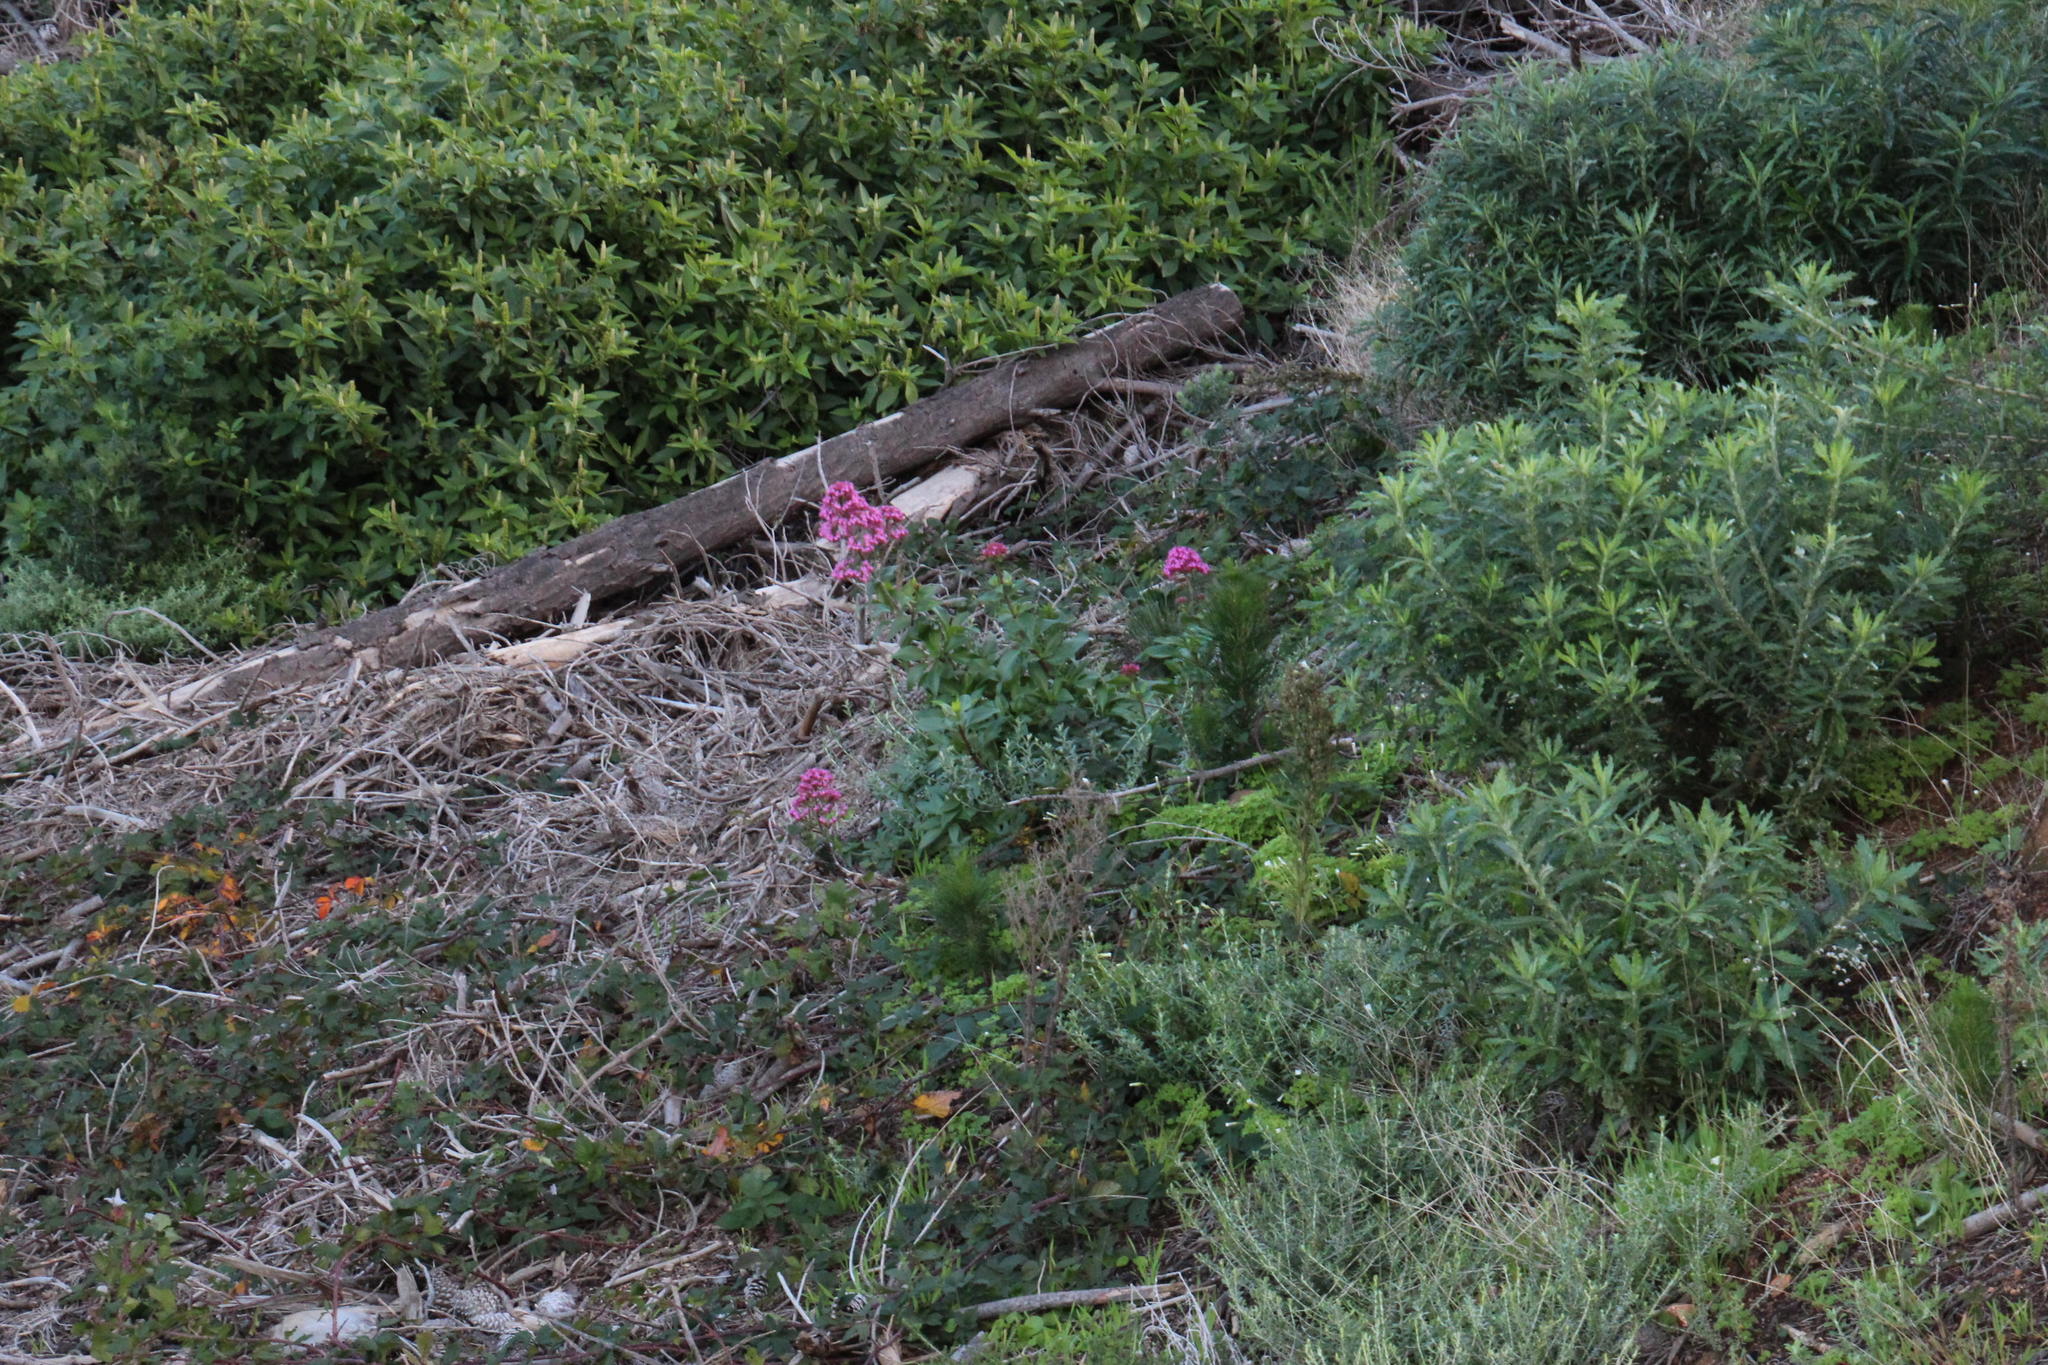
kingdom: Plantae
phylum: Tracheophyta
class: Magnoliopsida
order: Dipsacales
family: Caprifoliaceae
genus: Centranthus
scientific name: Centranthus ruber
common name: Red valerian
